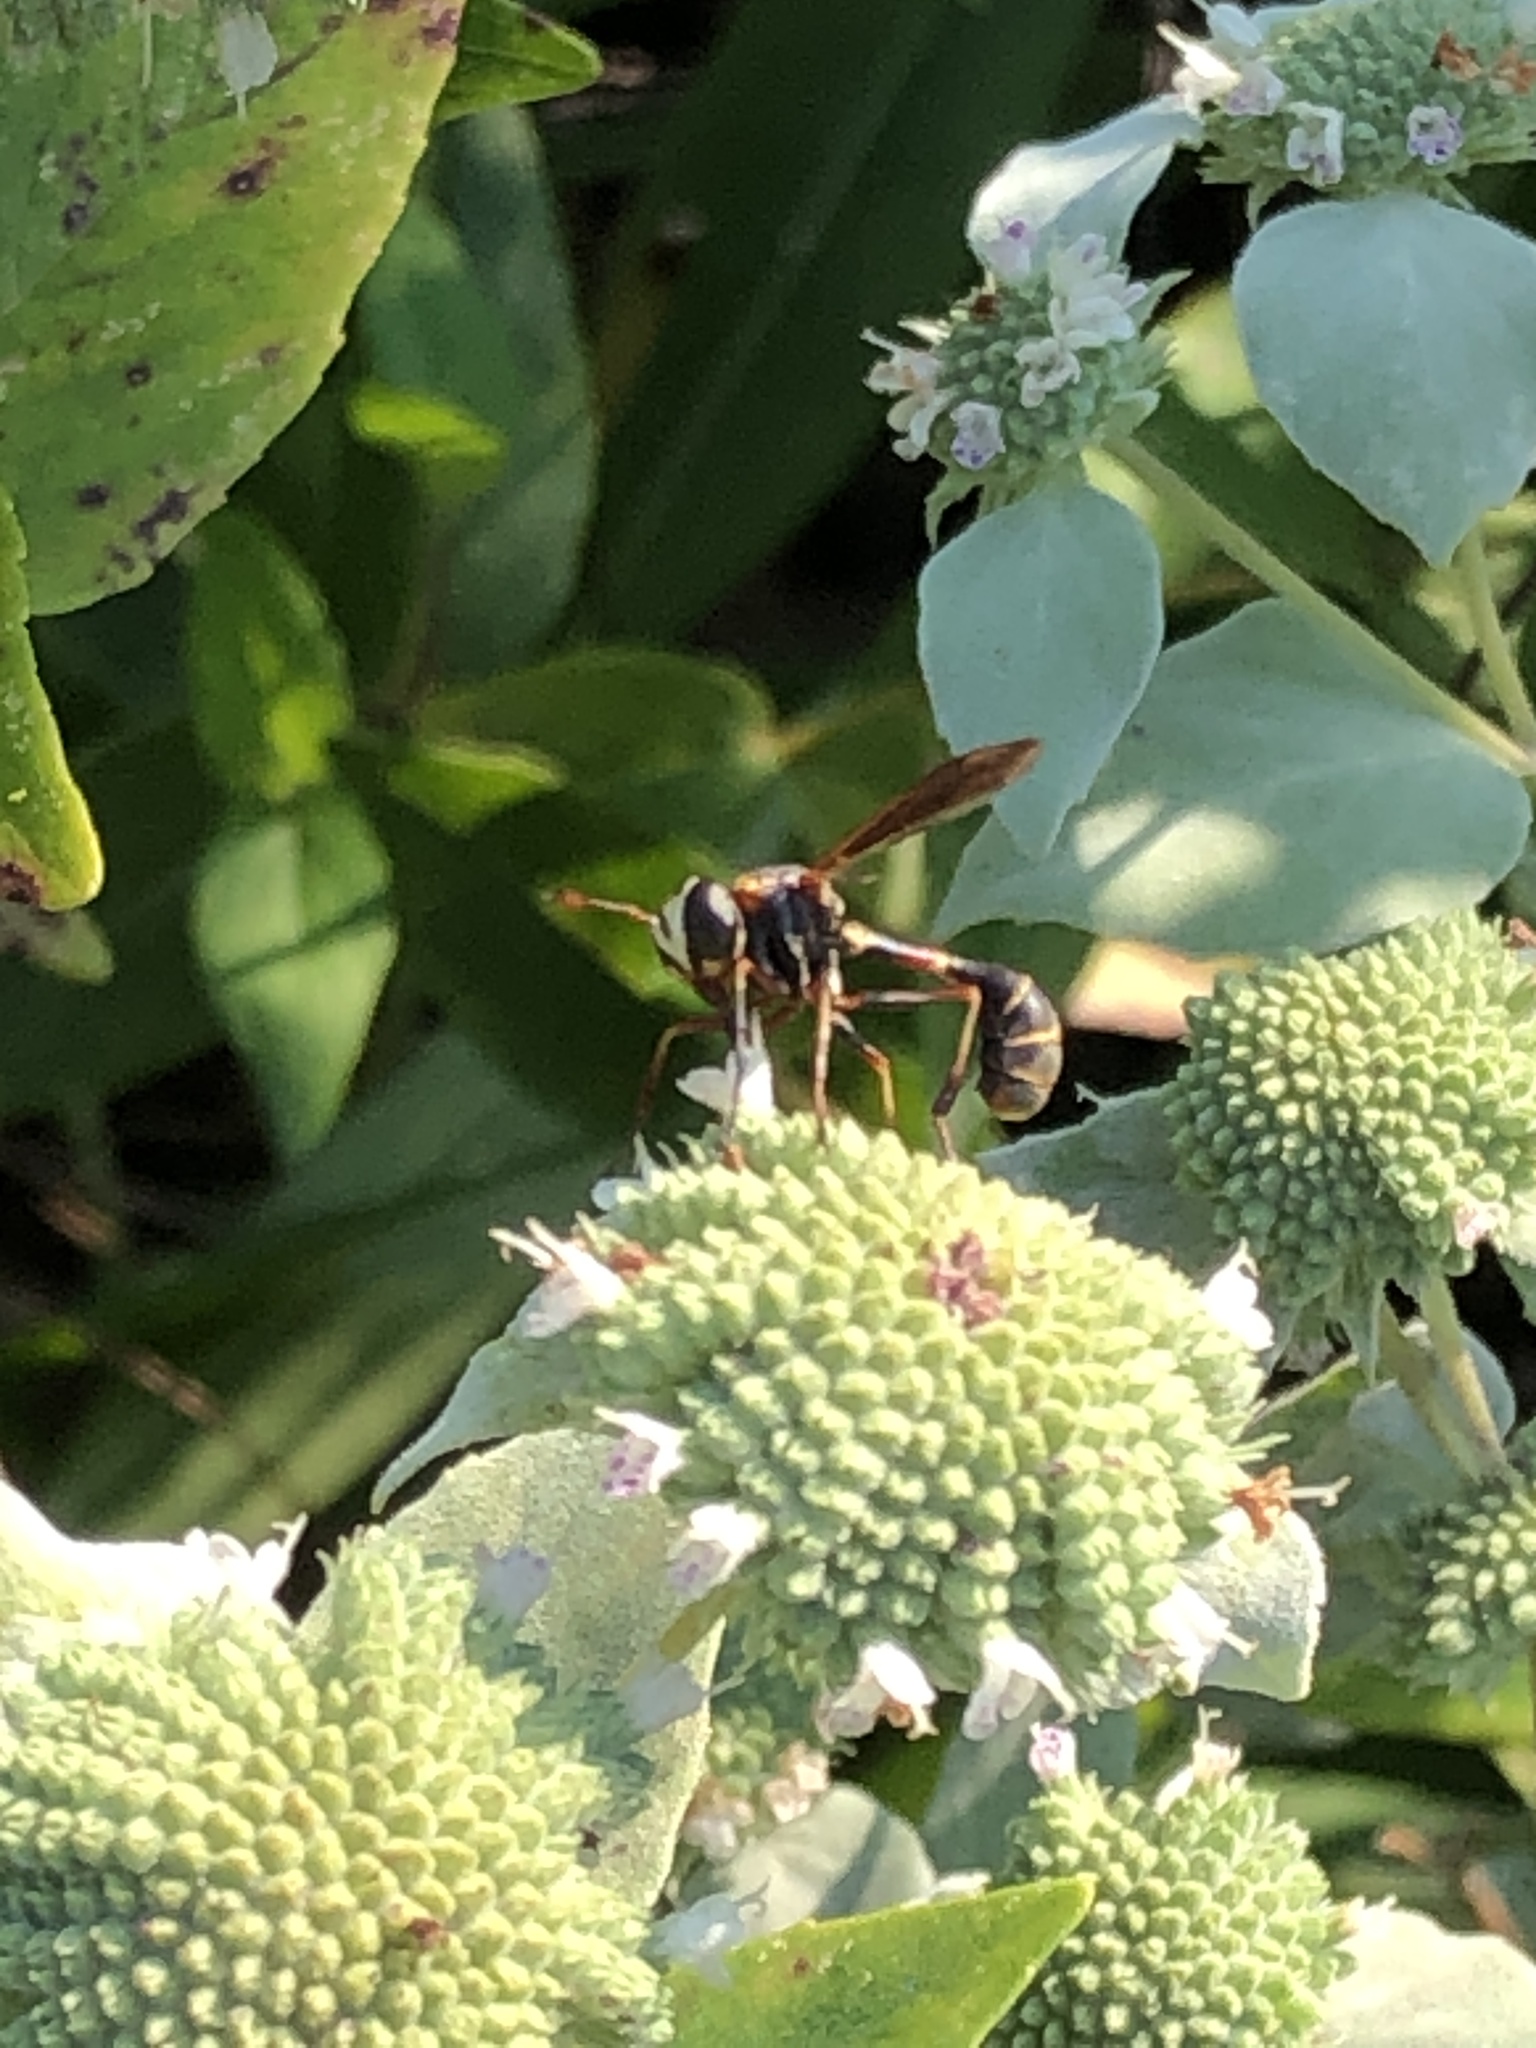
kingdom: Animalia
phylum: Arthropoda
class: Insecta
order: Diptera
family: Conopidae
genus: Physocephala
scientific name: Physocephala sagittaria
